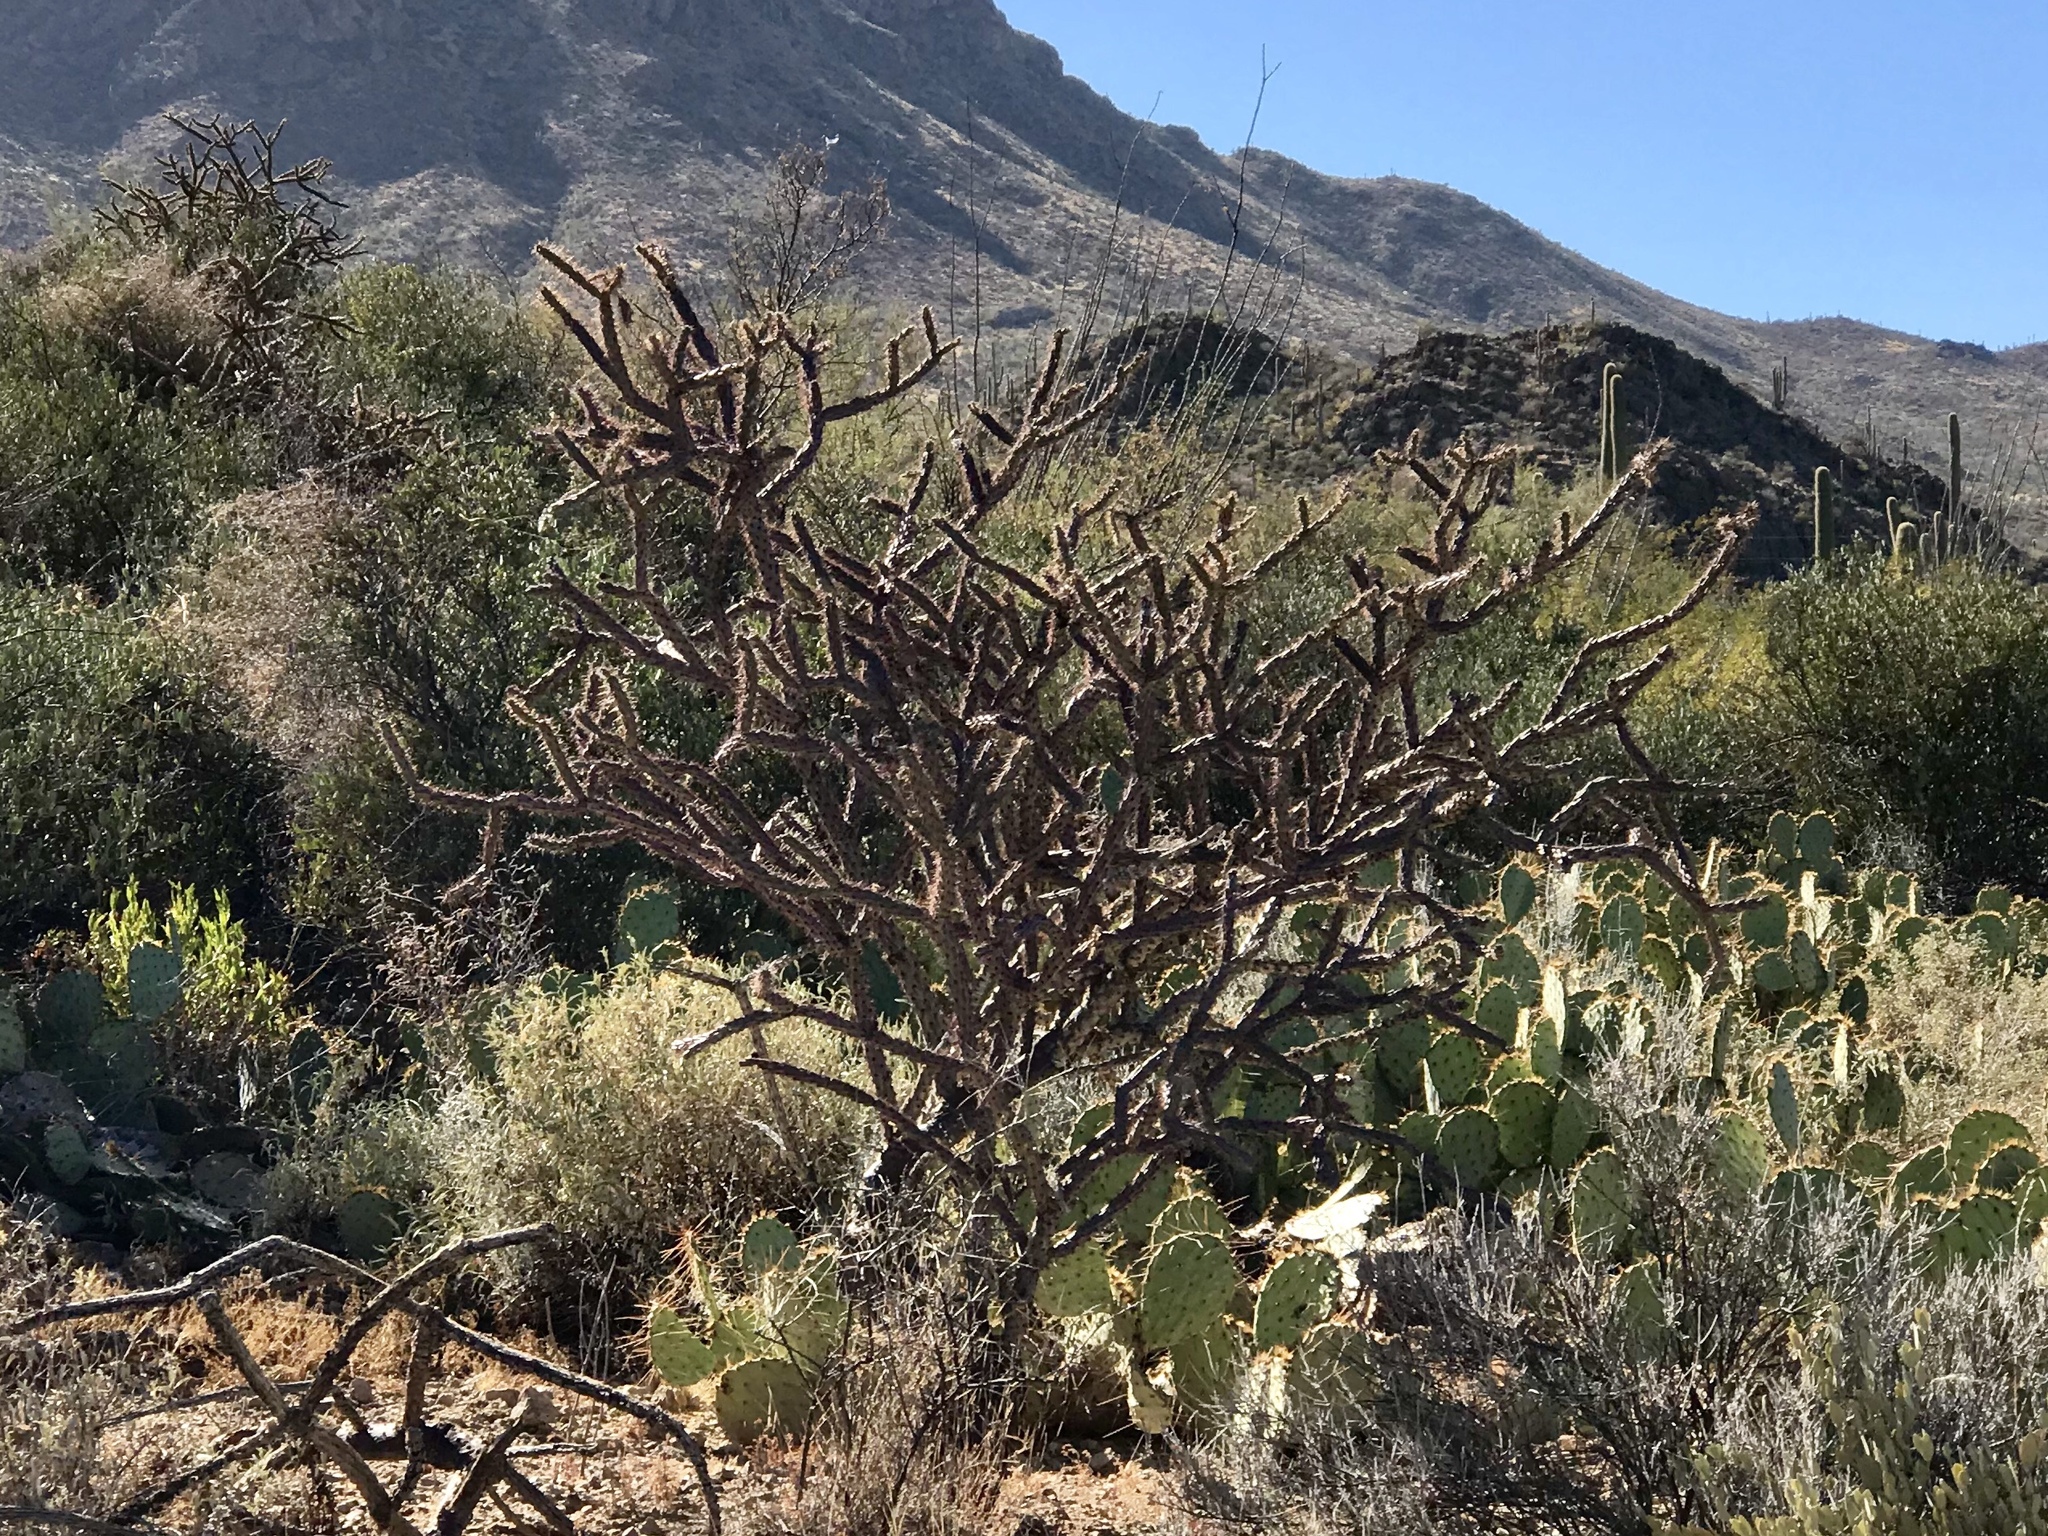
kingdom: Plantae
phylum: Tracheophyta
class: Magnoliopsida
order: Caryophyllales
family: Cactaceae
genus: Cylindropuntia
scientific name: Cylindropuntia thurberi
